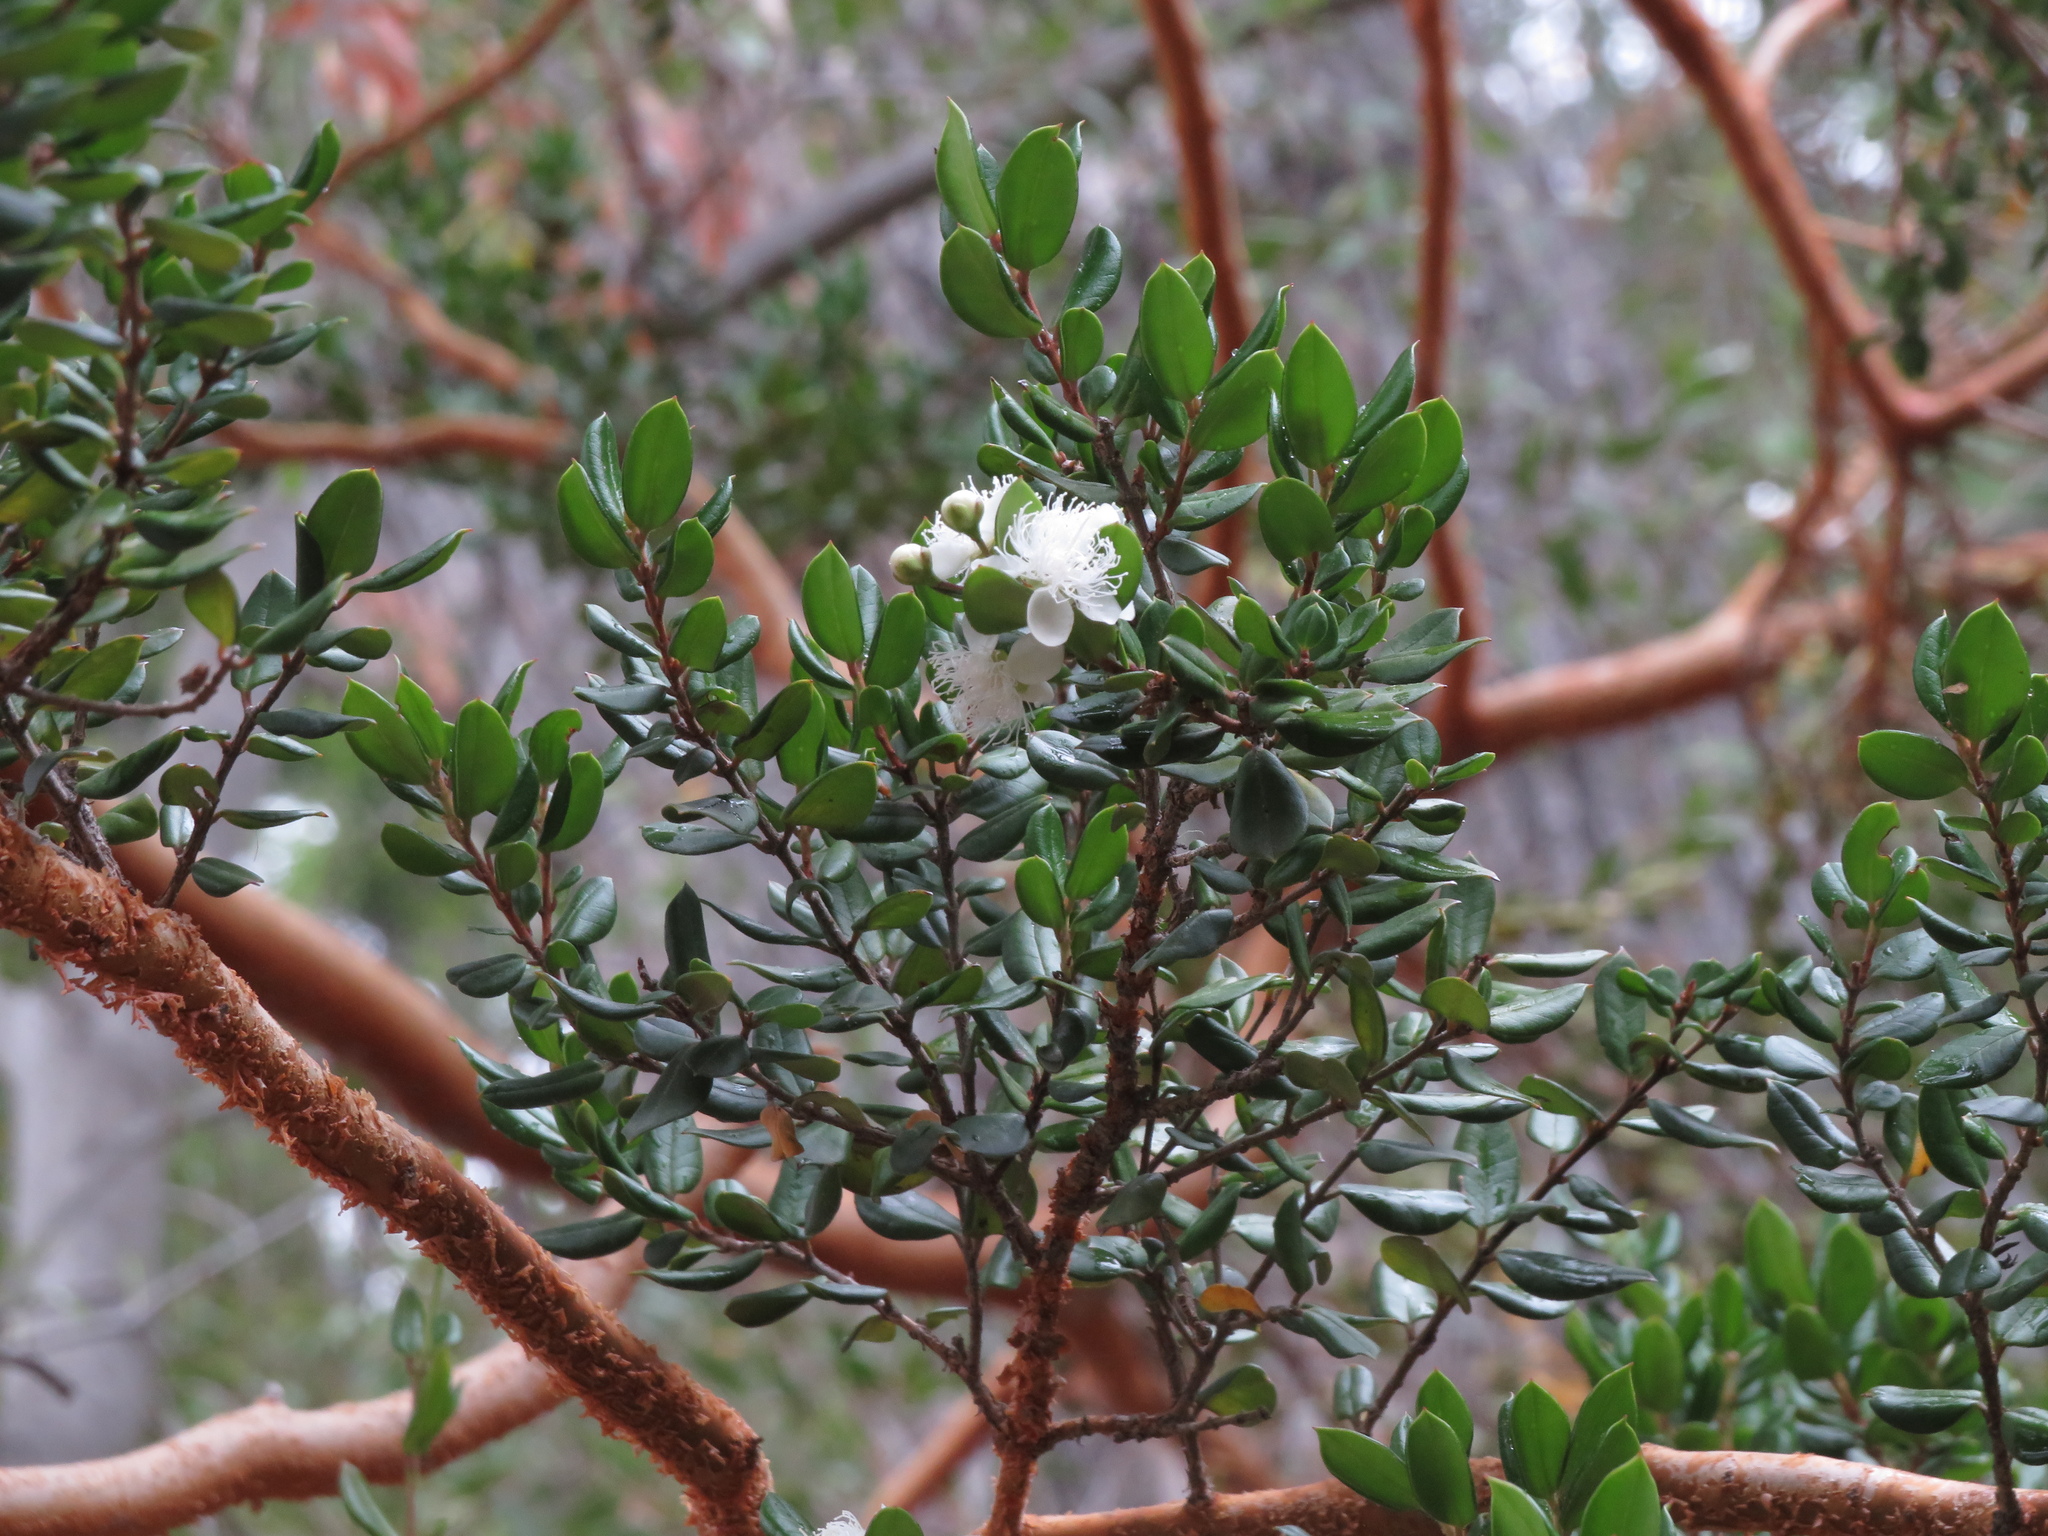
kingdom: Plantae
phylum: Tracheophyta
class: Magnoliopsida
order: Myrtales
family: Myrtaceae
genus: Luma
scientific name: Luma apiculata
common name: Chilean myrtle
